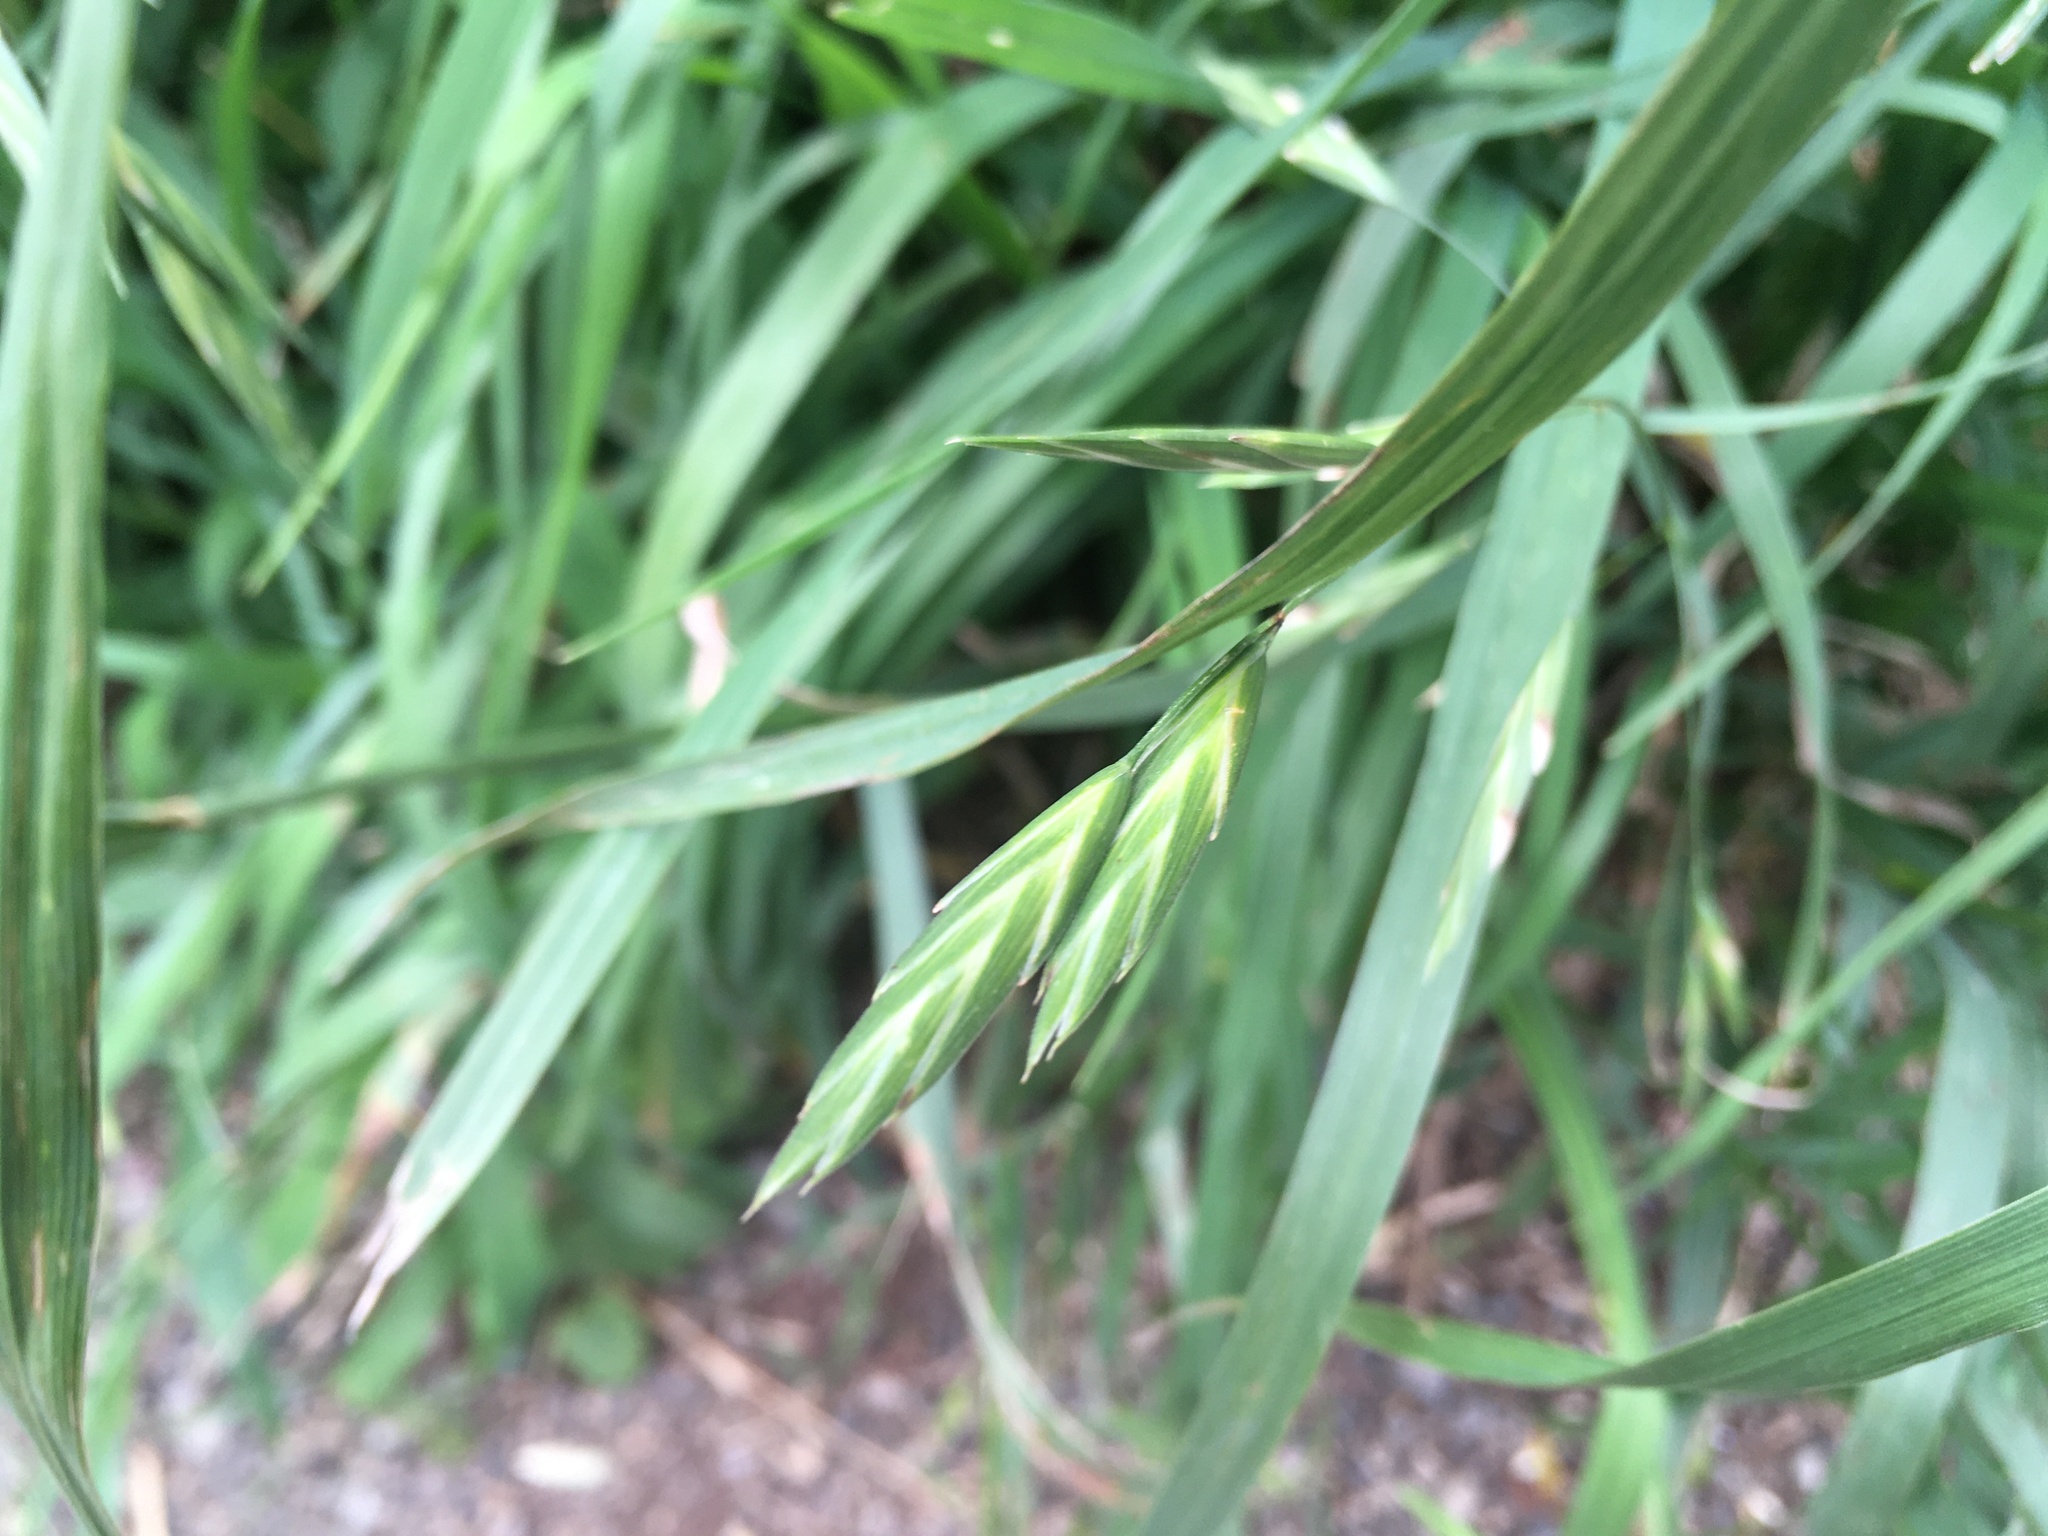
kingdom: Plantae
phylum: Tracheophyta
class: Liliopsida
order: Poales
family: Poaceae
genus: Bromus
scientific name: Bromus catharticus
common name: Rescuegrass
